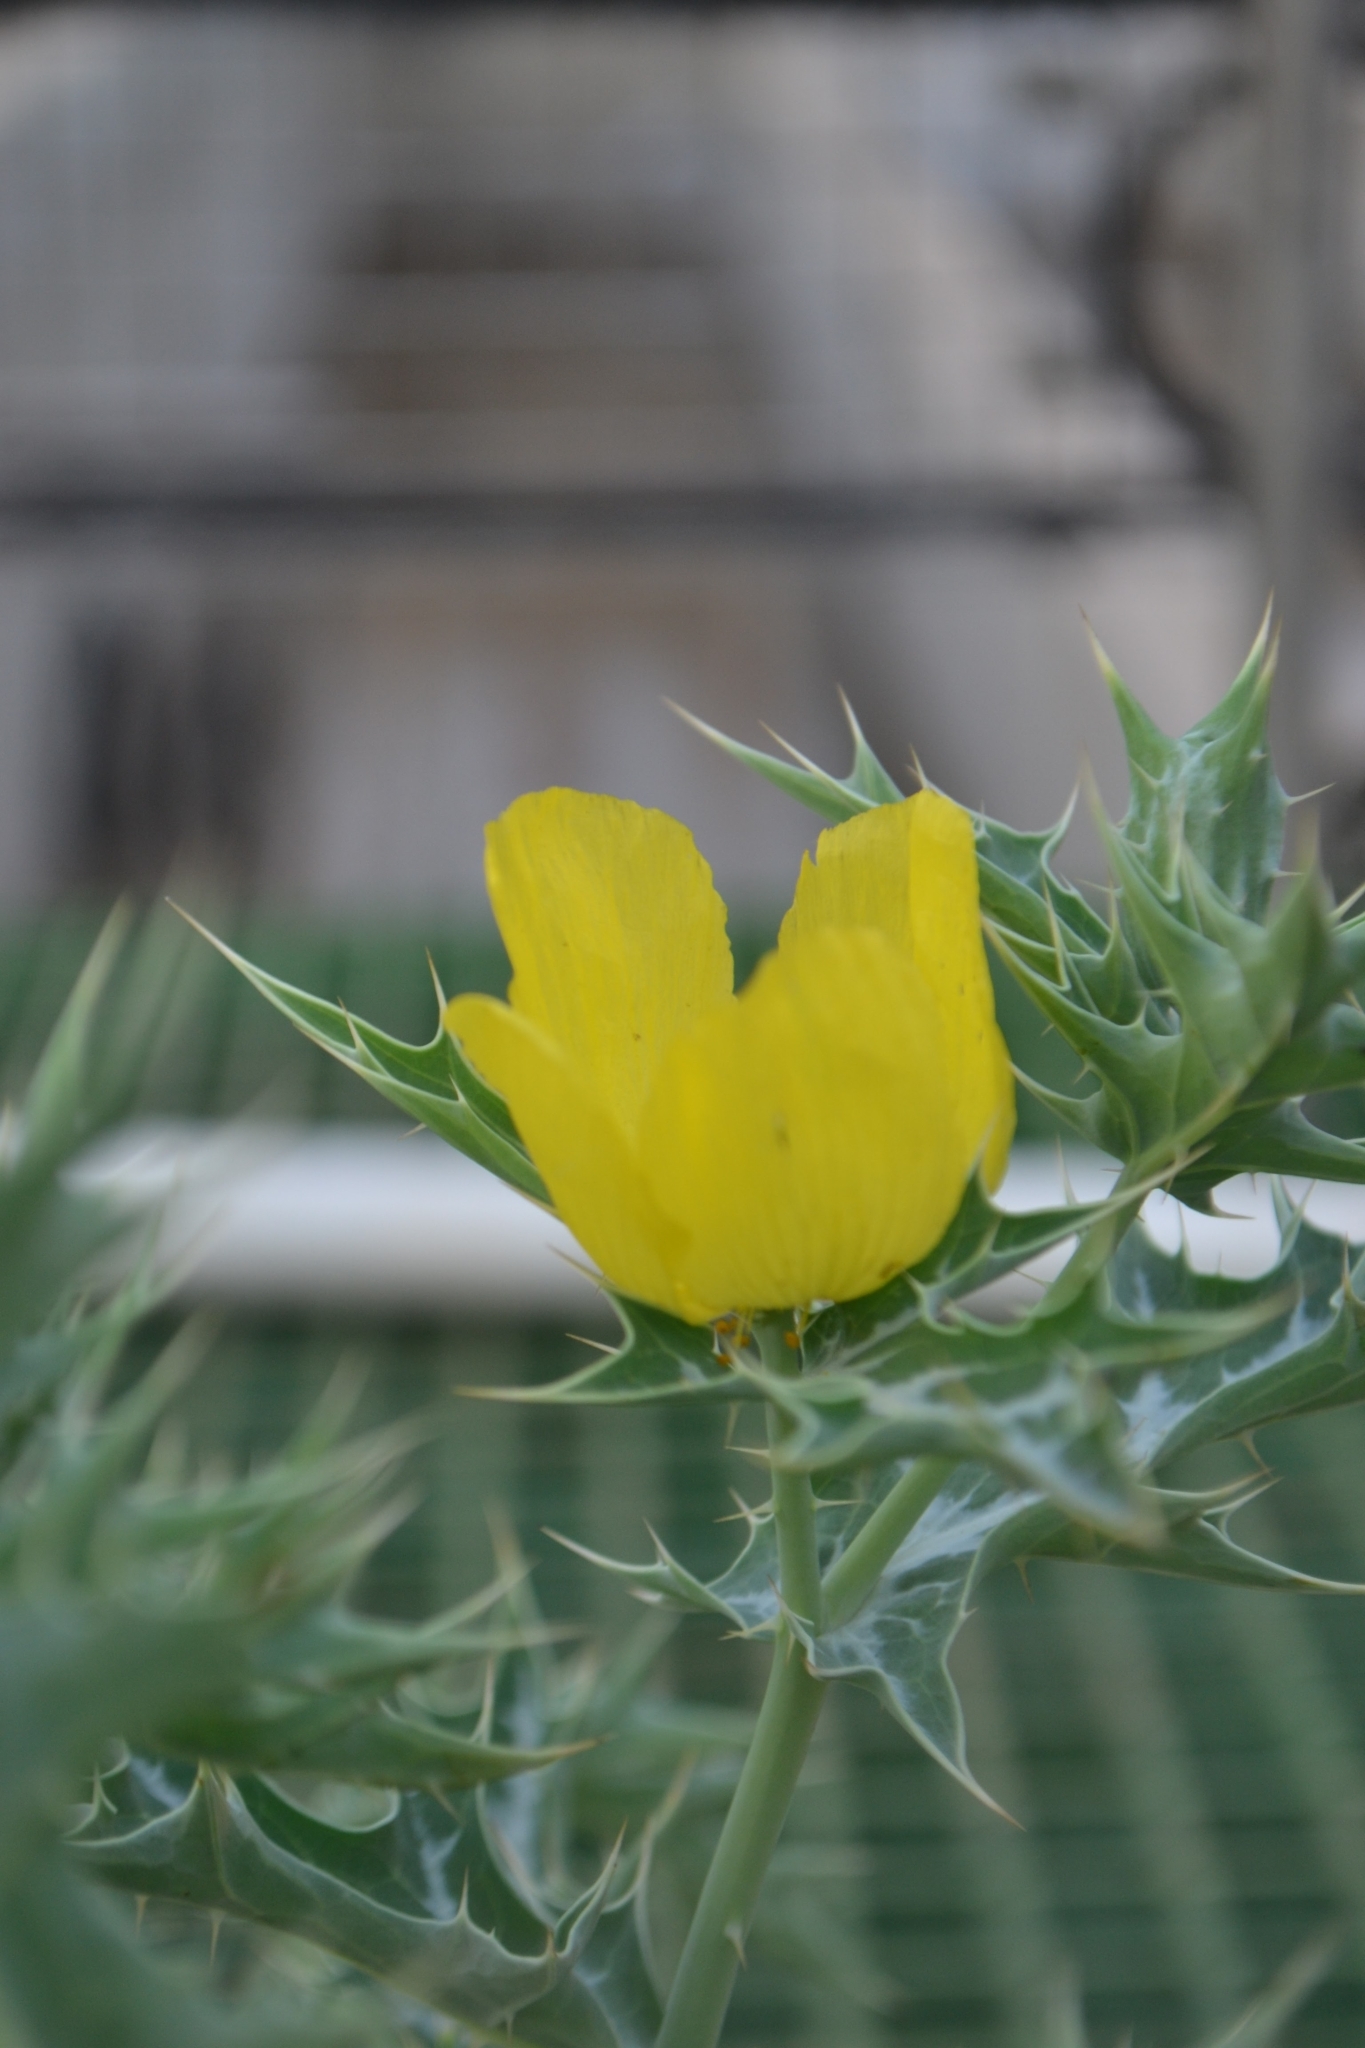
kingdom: Plantae
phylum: Tracheophyta
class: Magnoliopsida
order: Ranunculales
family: Papaveraceae
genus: Argemone
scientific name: Argemone mexicana
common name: Mexican poppy
